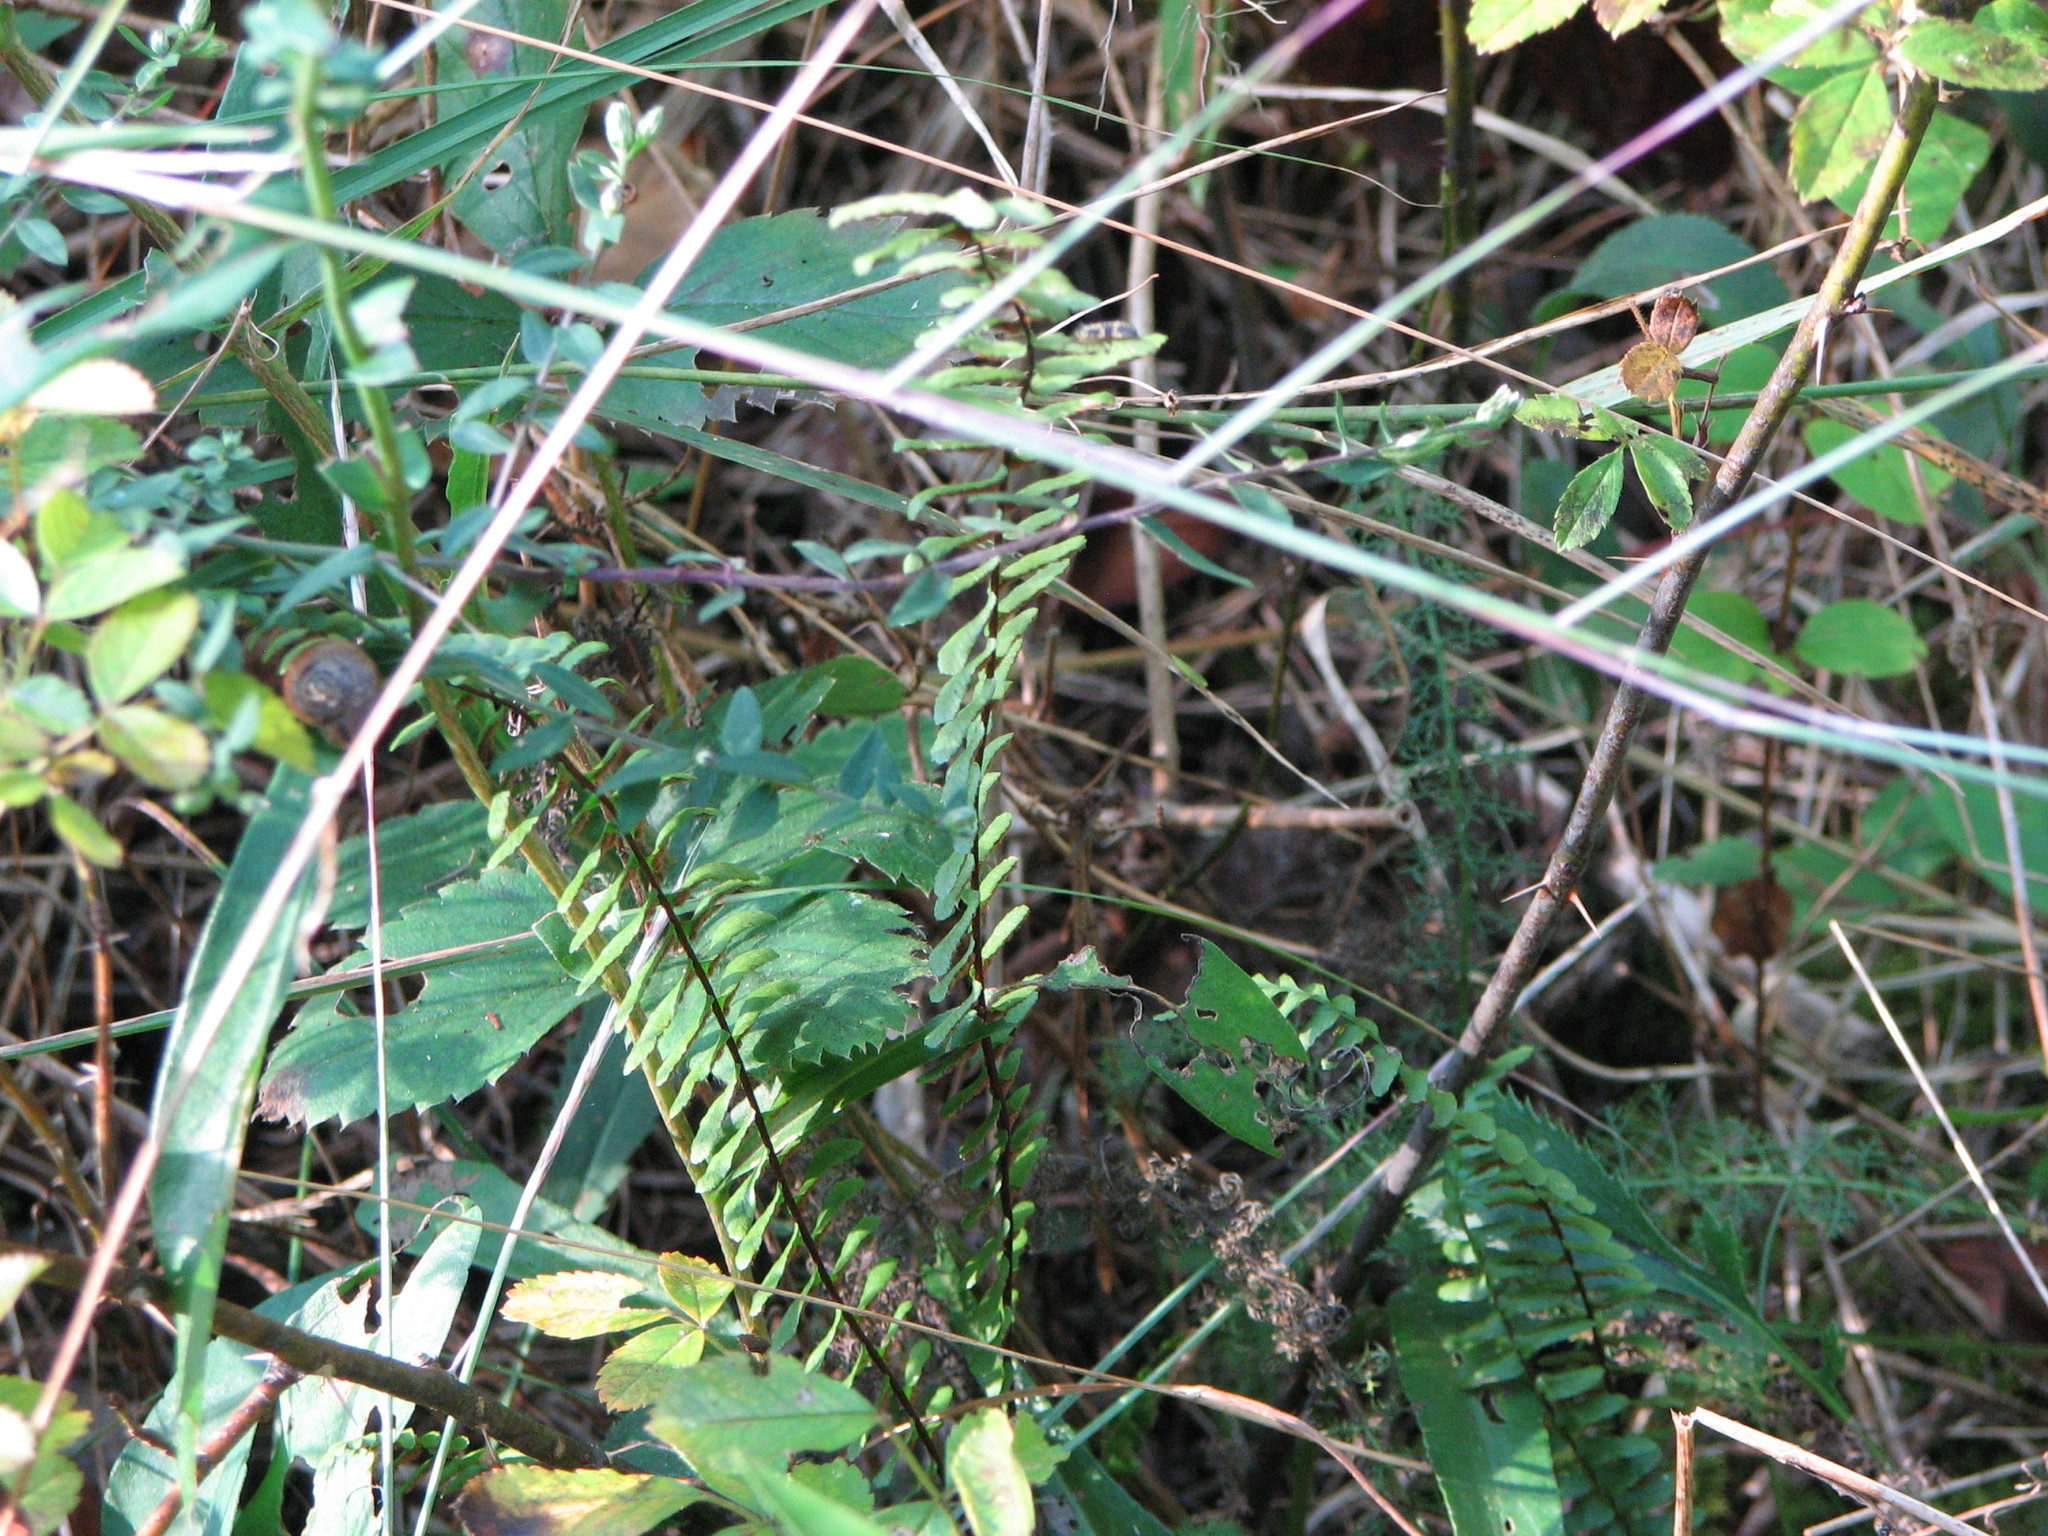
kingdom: Plantae
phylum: Tracheophyta
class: Polypodiopsida
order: Polypodiales
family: Aspleniaceae
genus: Asplenium
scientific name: Asplenium platyneuron
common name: Ebony spleenwort
